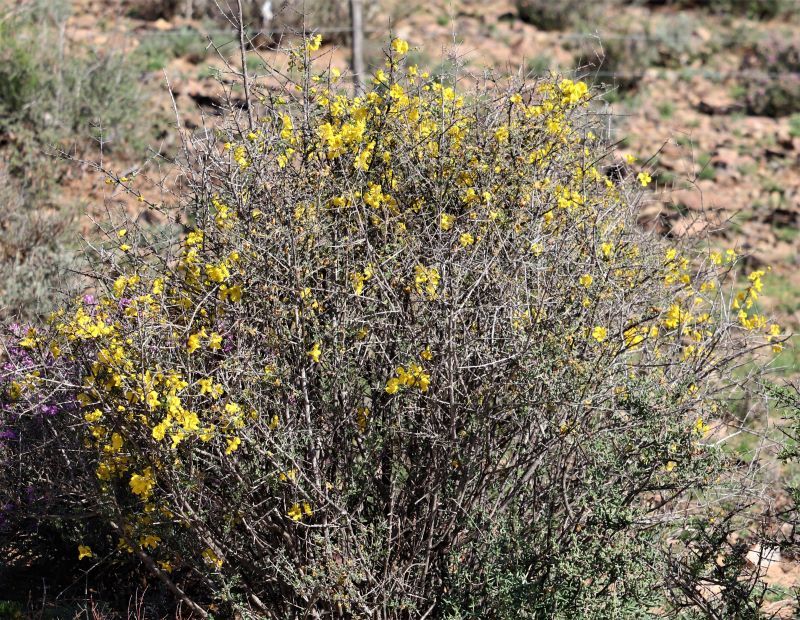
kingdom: Plantae
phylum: Tracheophyta
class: Magnoliopsida
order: Lamiales
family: Bignoniaceae
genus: Rhigozum
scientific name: Rhigozum obovatum
